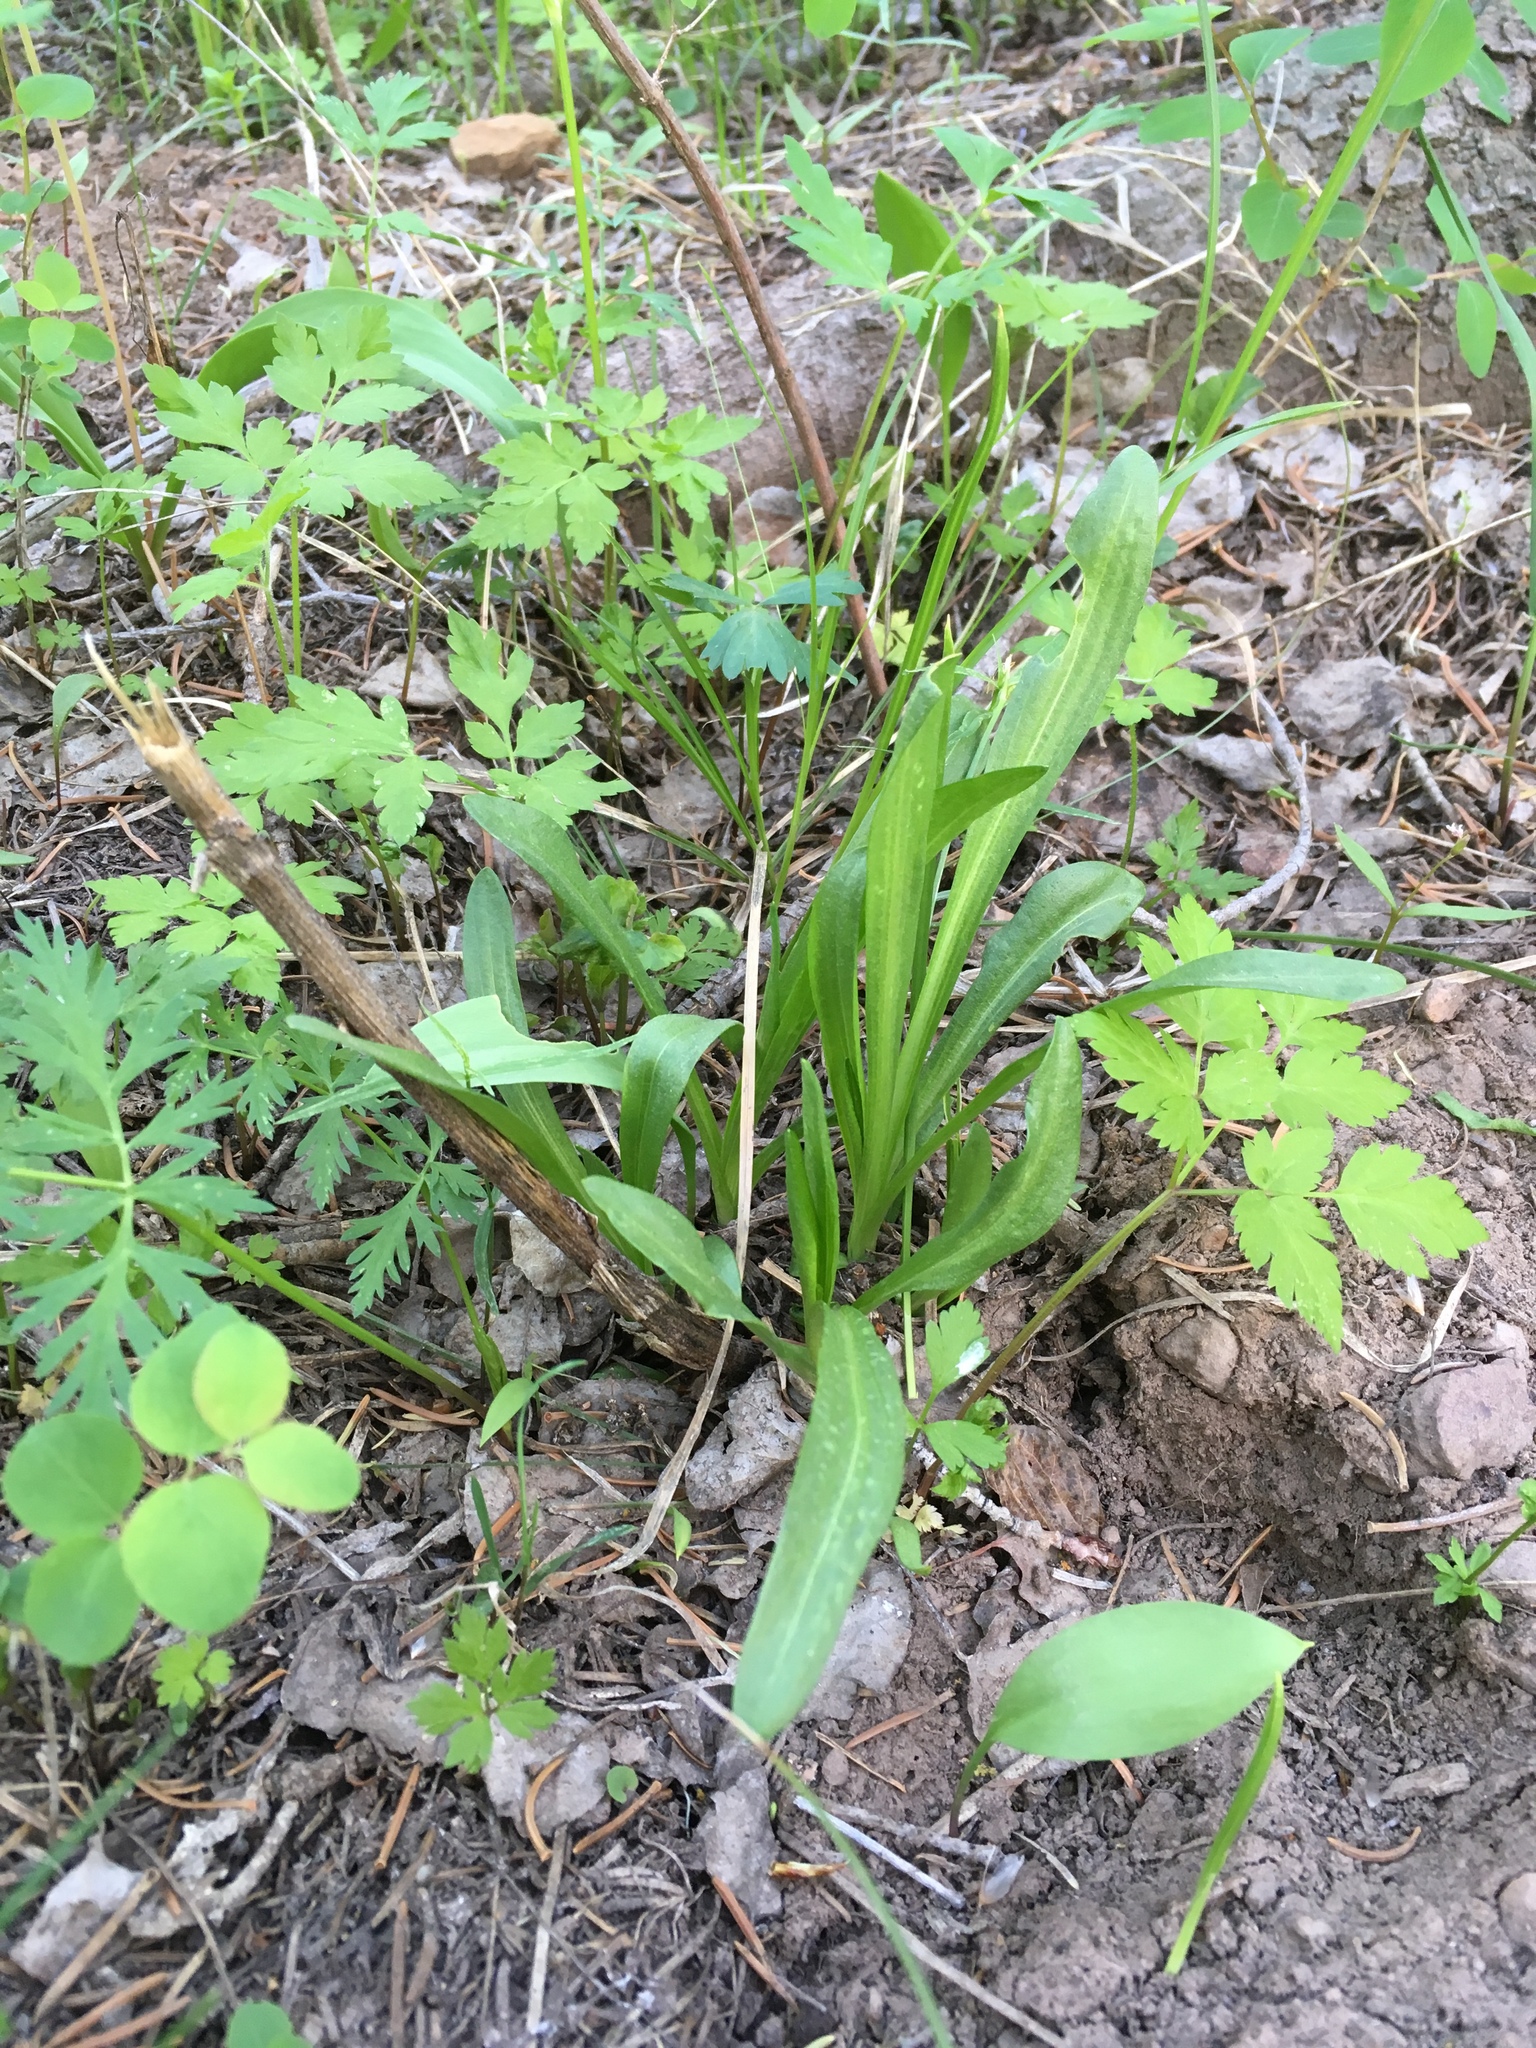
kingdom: Plantae
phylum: Tracheophyta
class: Magnoliopsida
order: Asterales
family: Asteraceae
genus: Hymenoxys
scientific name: Hymenoxys hoopesii
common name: Orange-sneezeweed
